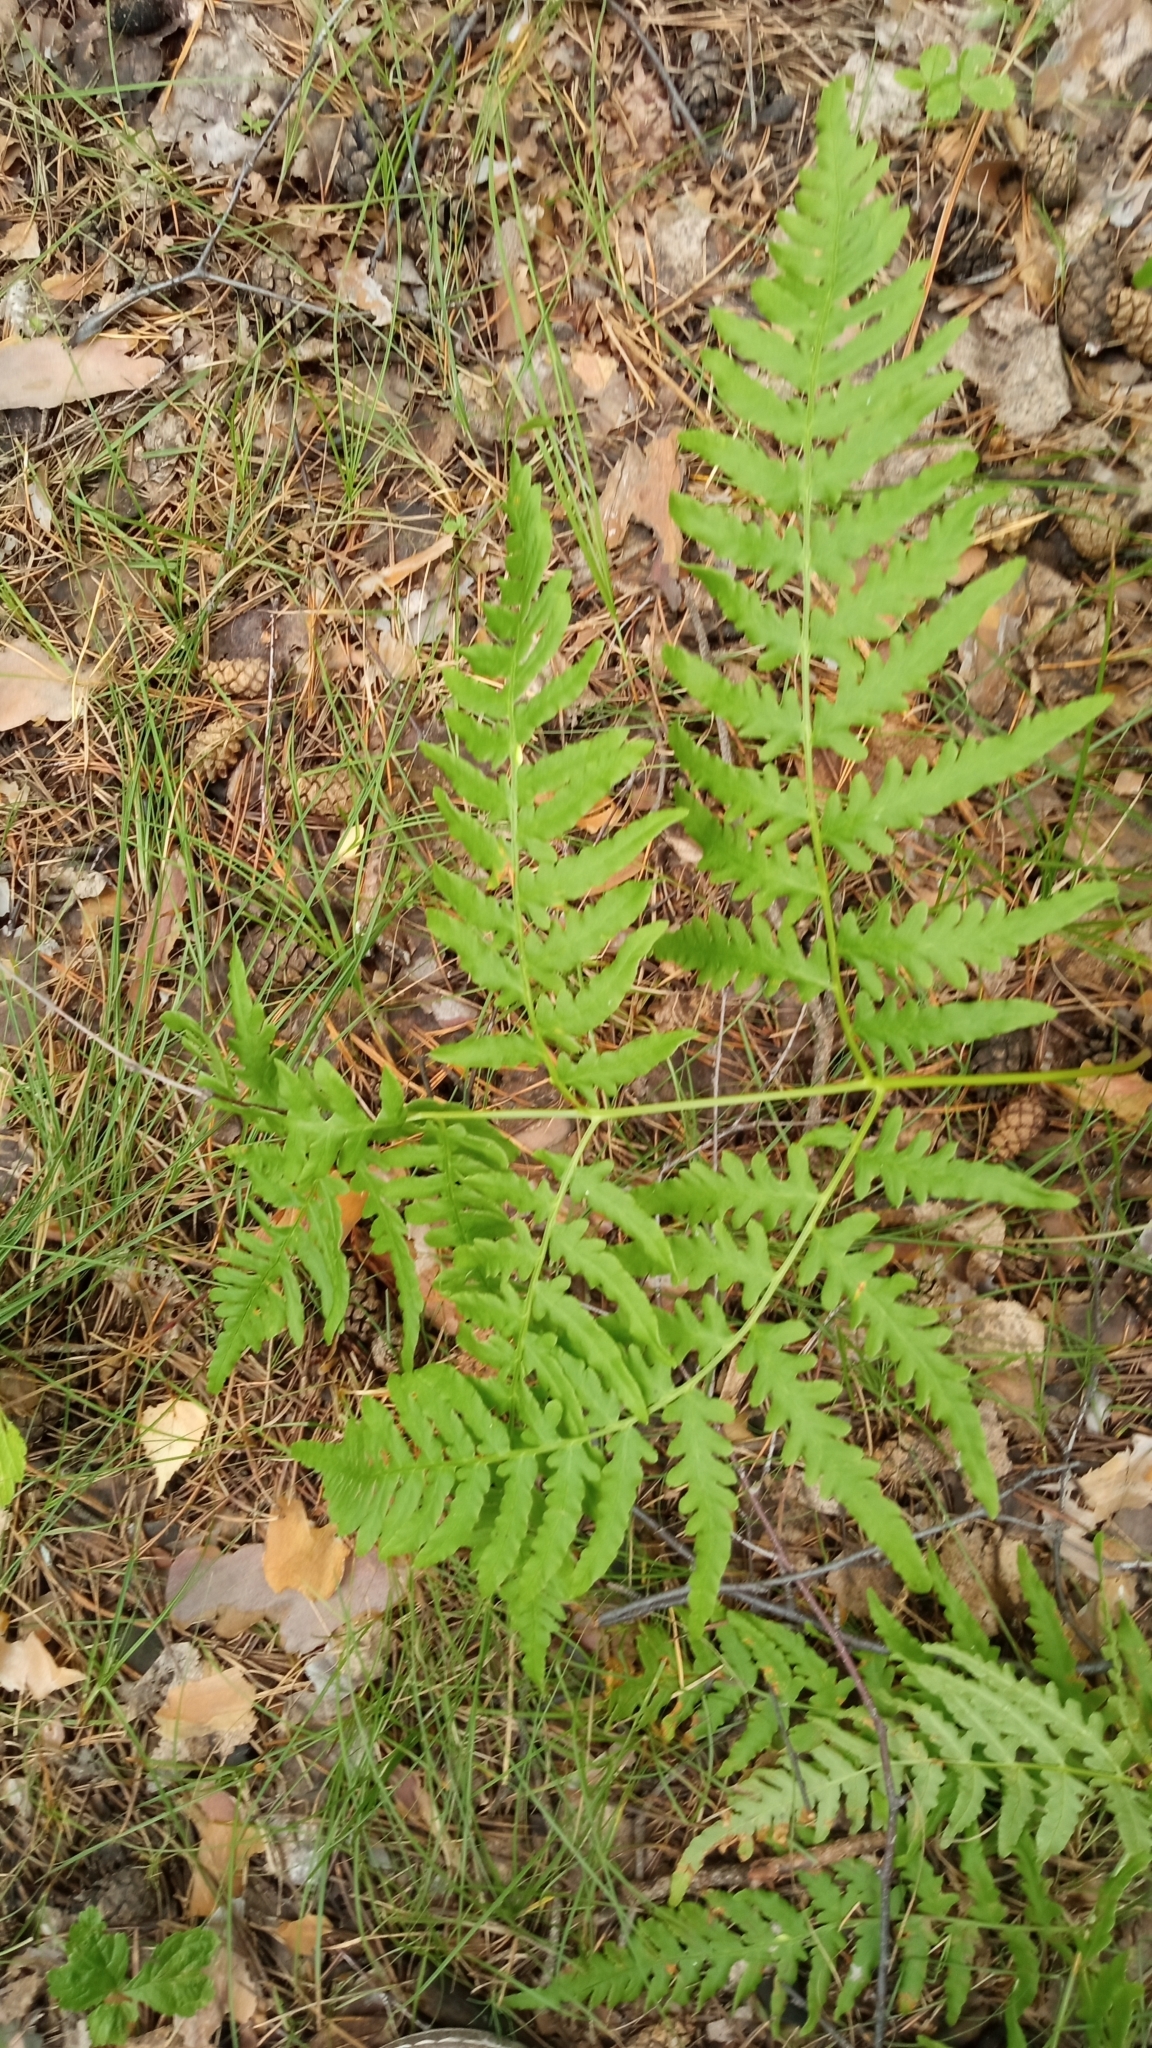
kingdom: Plantae
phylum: Tracheophyta
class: Polypodiopsida
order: Polypodiales
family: Dennstaedtiaceae
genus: Pteridium
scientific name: Pteridium aquilinum
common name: Bracken
